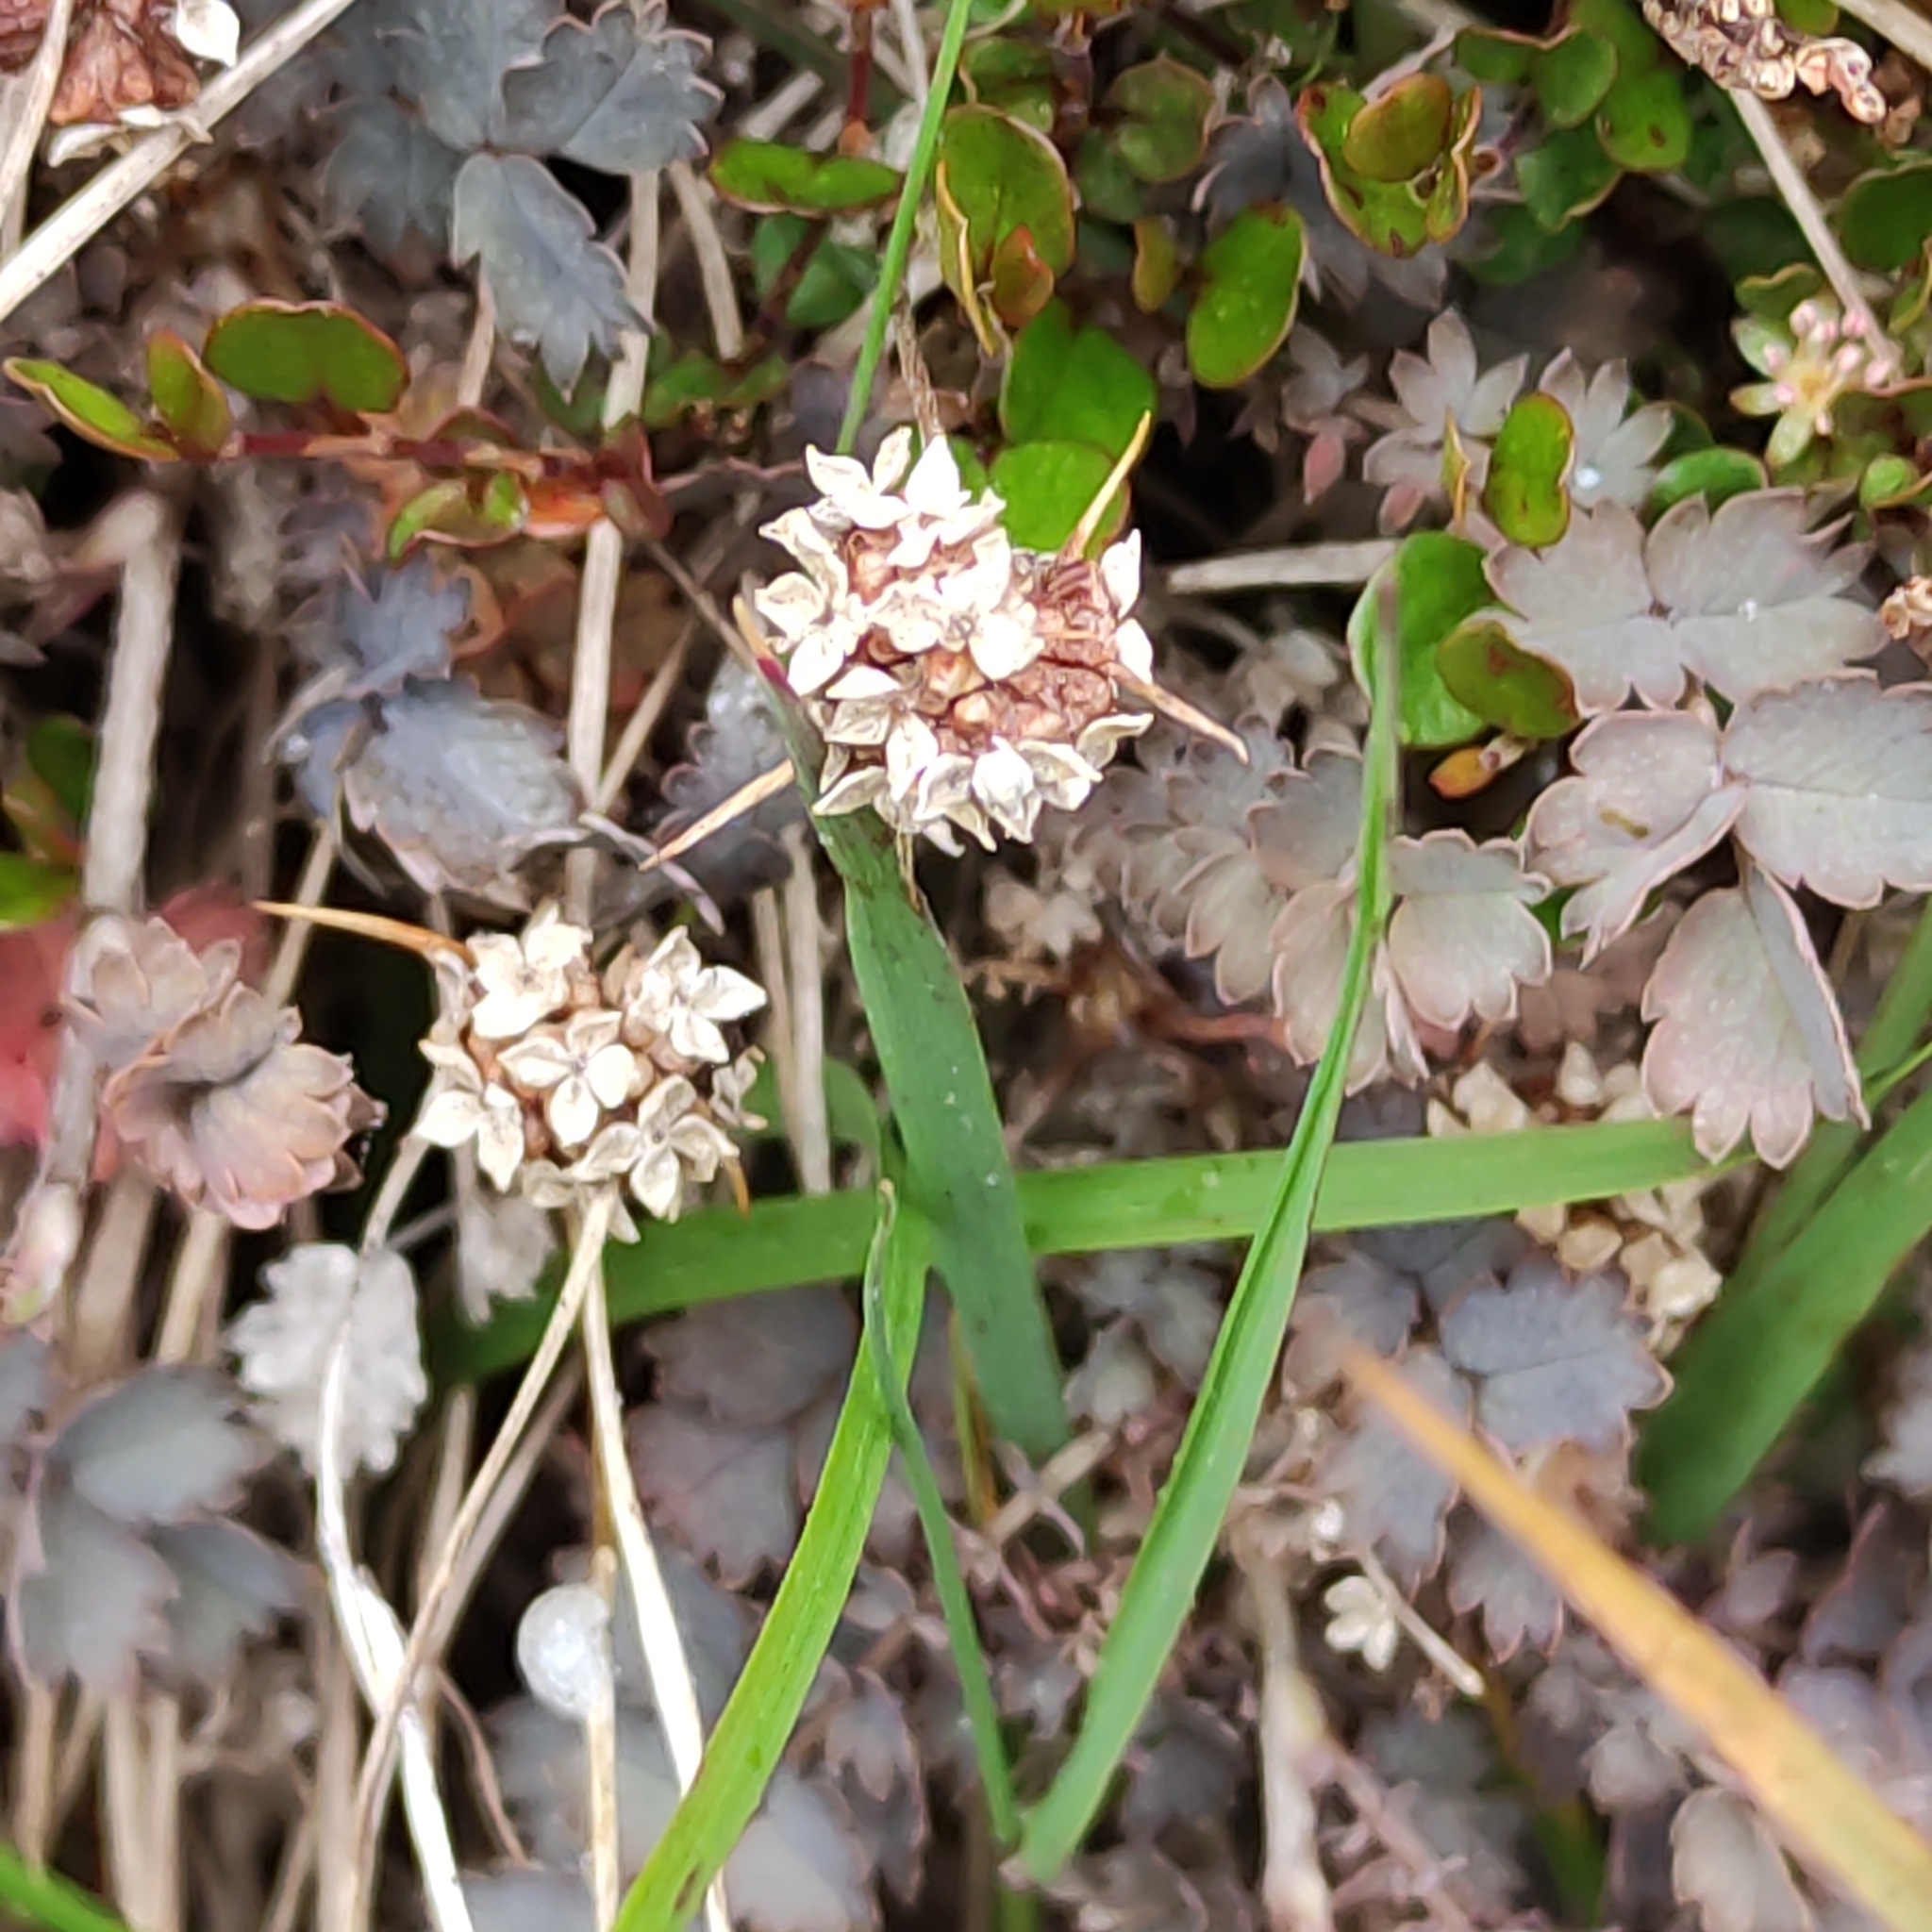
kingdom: Plantae
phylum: Tracheophyta
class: Magnoliopsida
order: Rosales
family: Rosaceae
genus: Acaena
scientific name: Acaena inermis
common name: Spineless acaena
